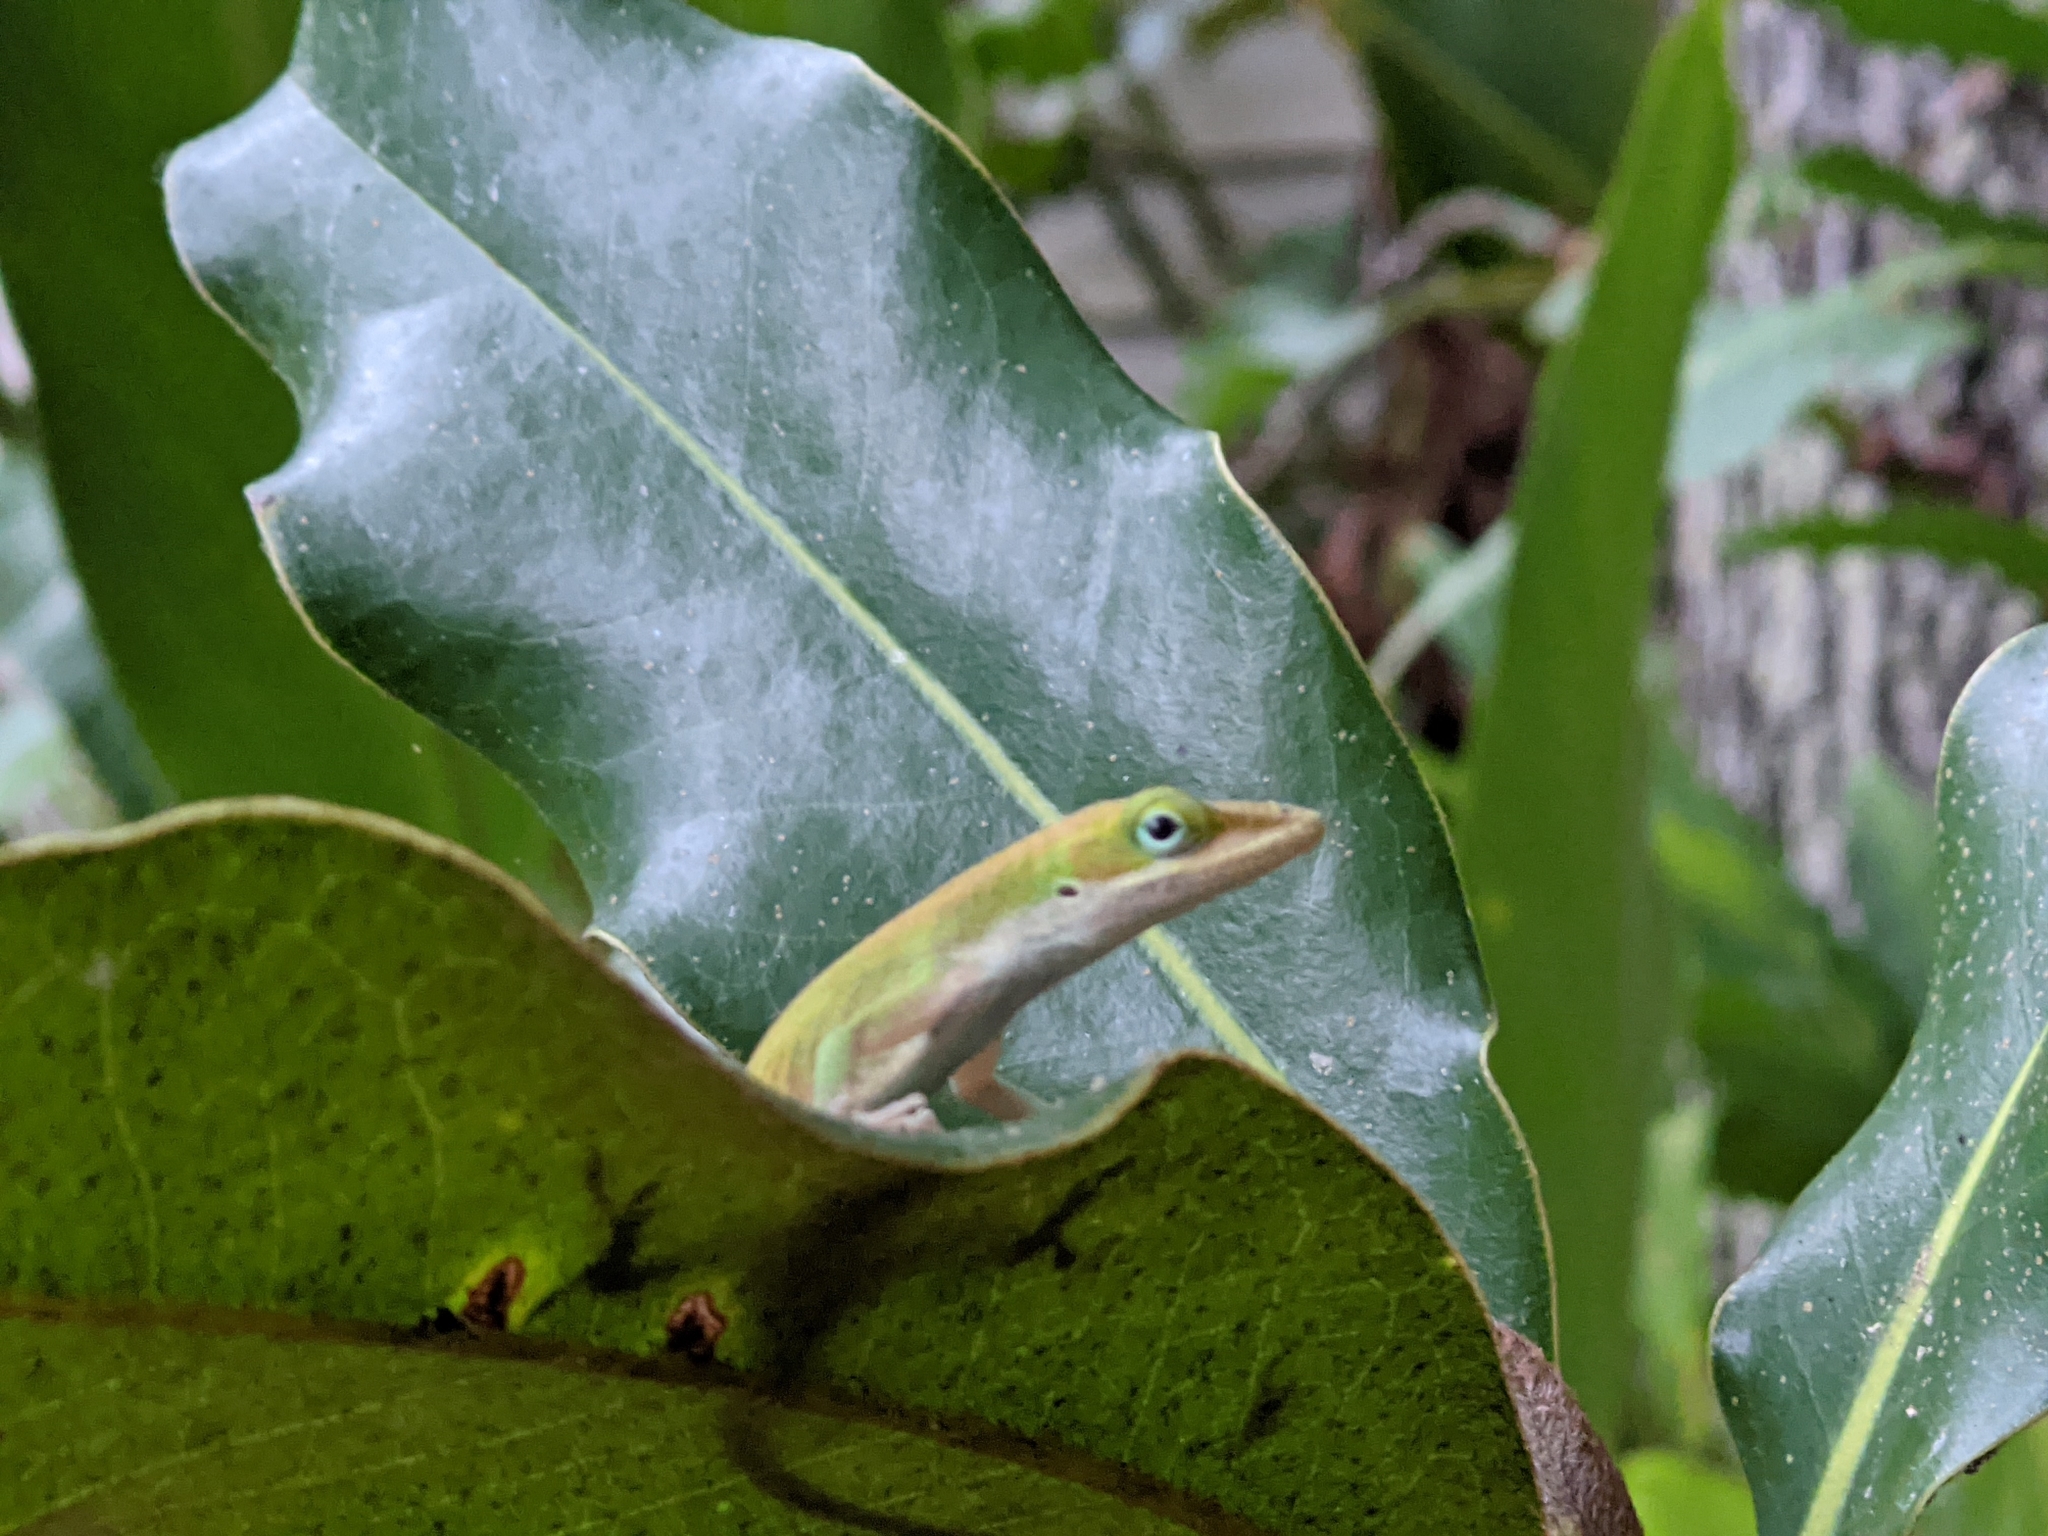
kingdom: Animalia
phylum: Chordata
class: Squamata
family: Dactyloidae
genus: Anolis
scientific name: Anolis carolinensis
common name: Green anole
